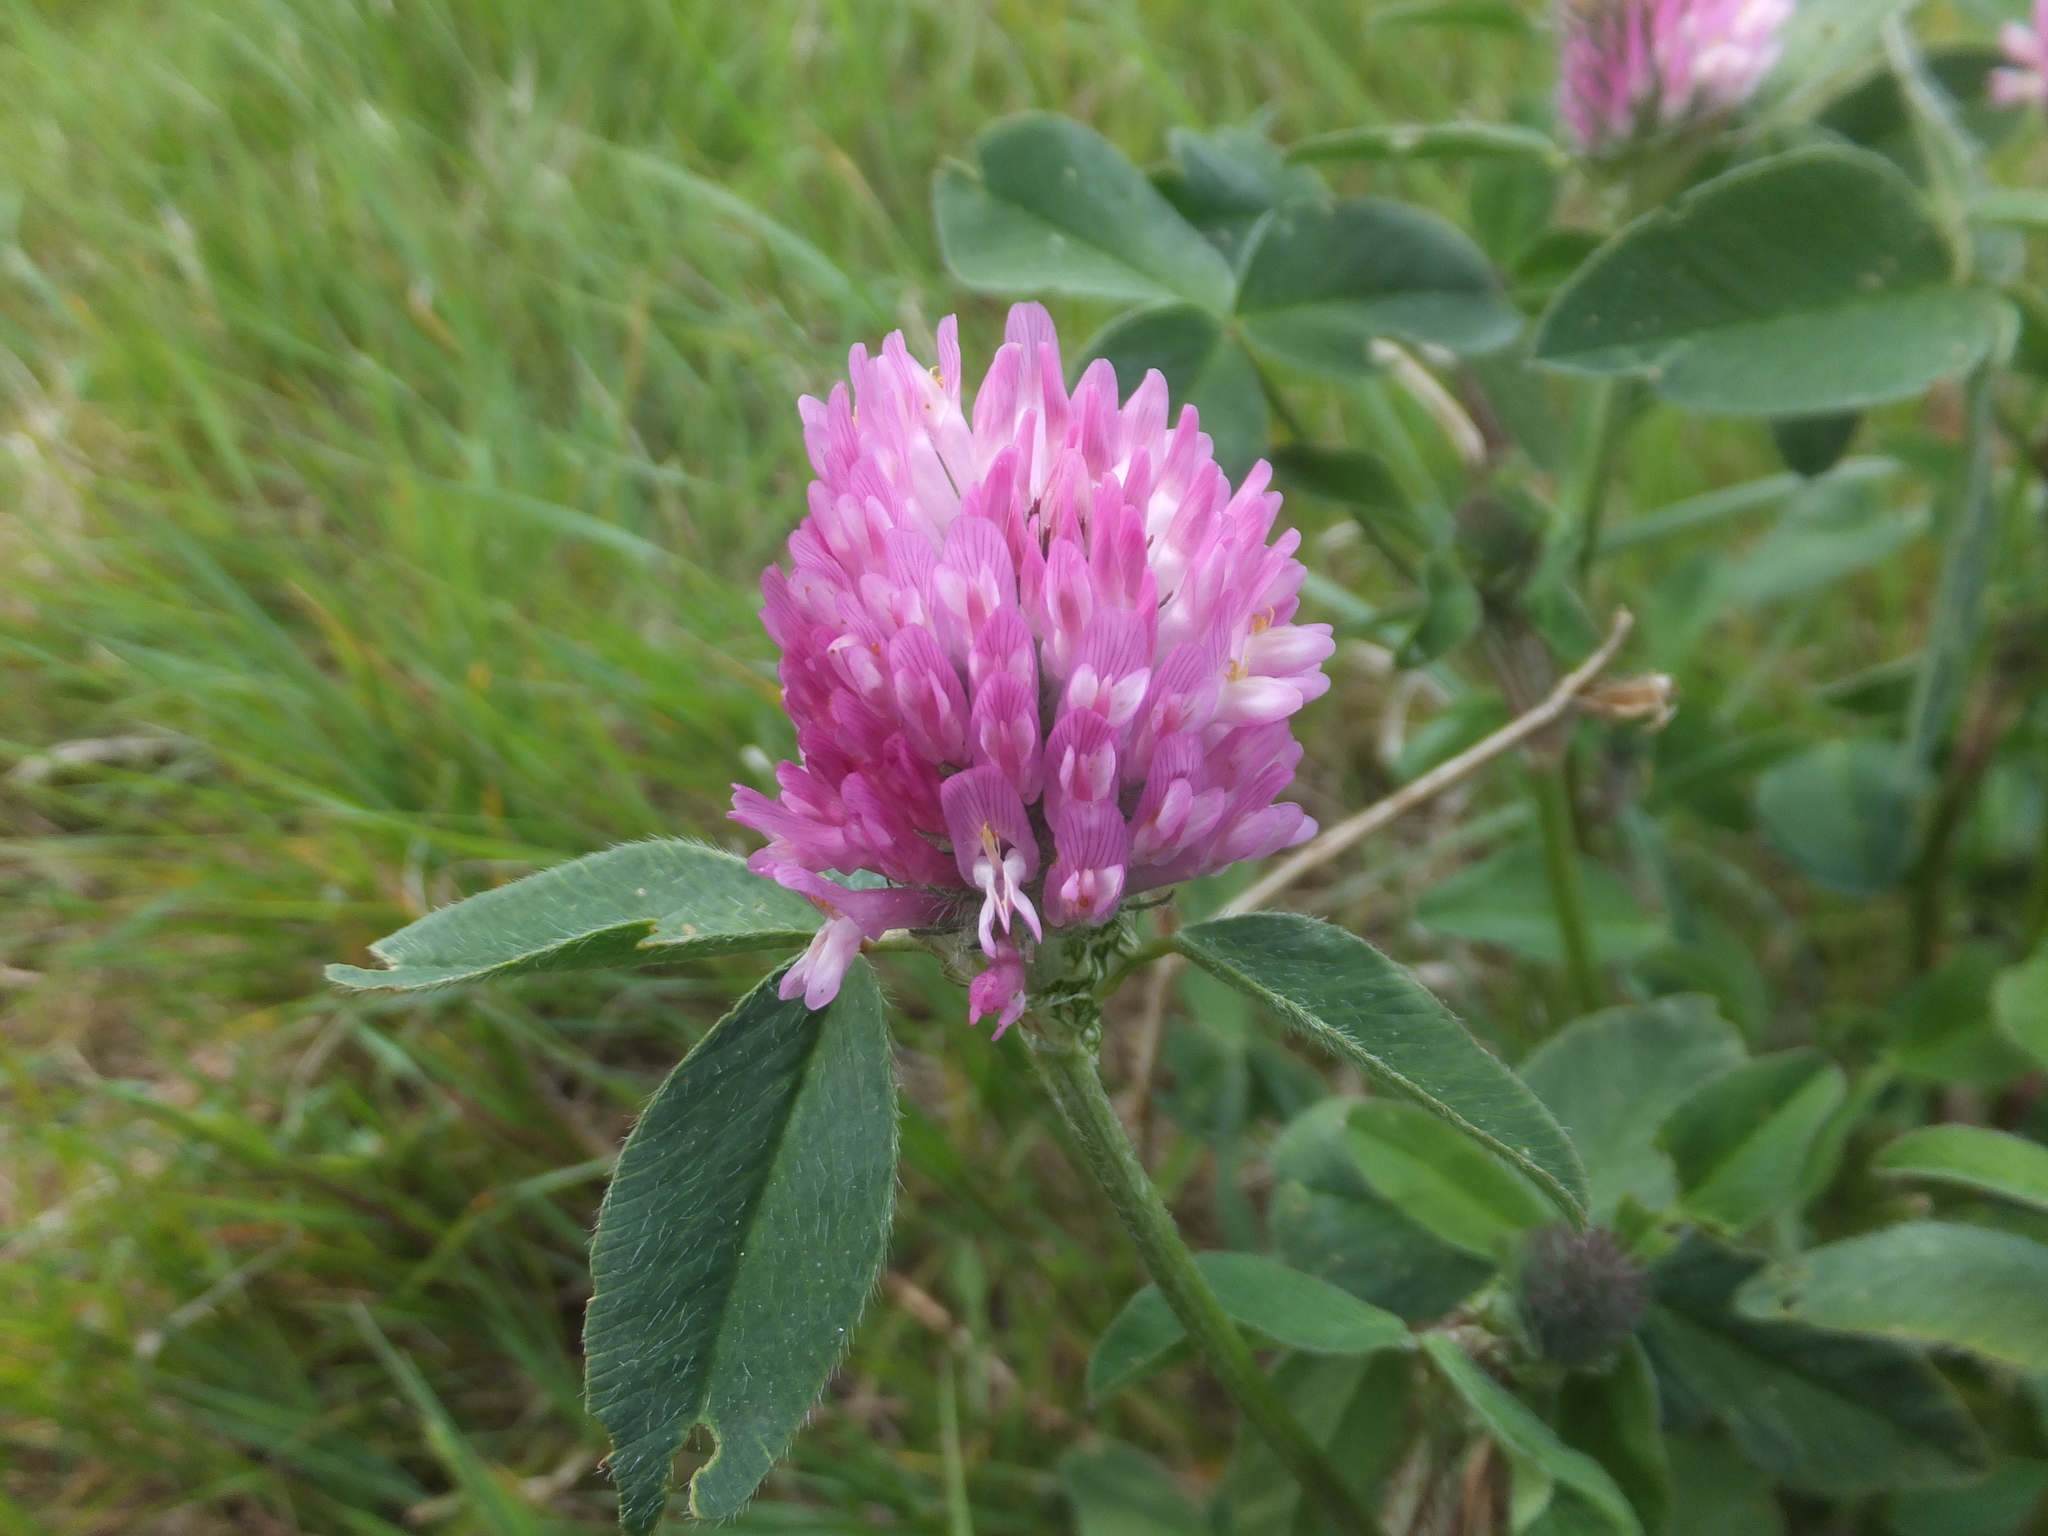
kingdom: Plantae
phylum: Tracheophyta
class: Magnoliopsida
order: Fabales
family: Fabaceae
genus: Trifolium
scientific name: Trifolium pratense
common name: Red clover
